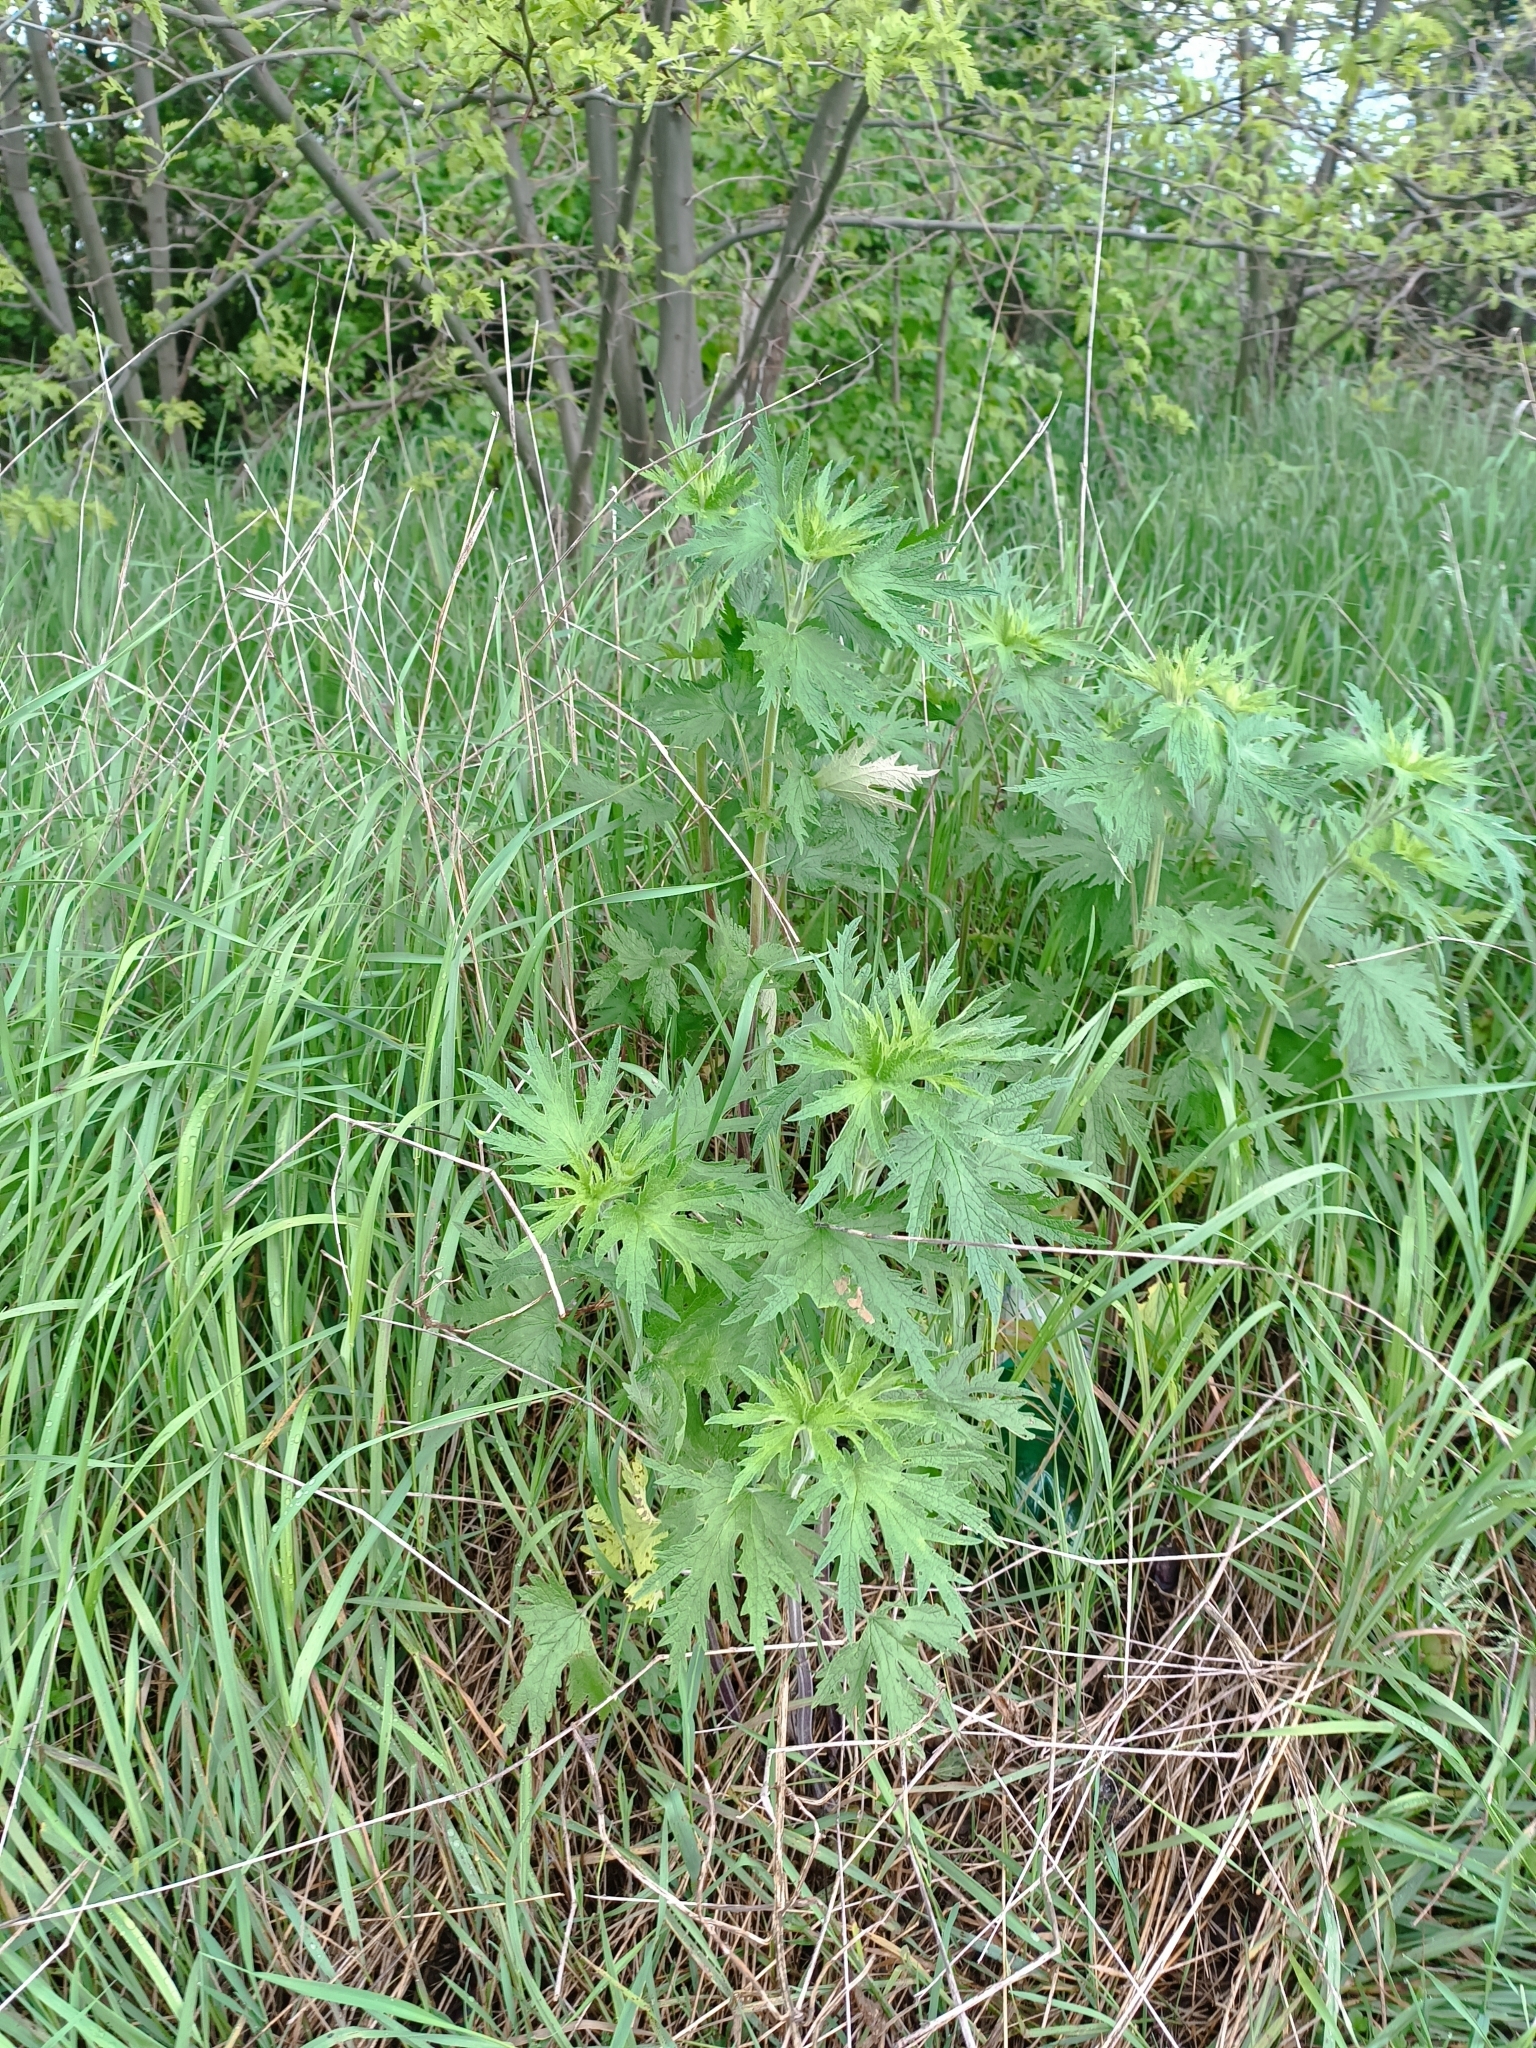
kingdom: Plantae
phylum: Tracheophyta
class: Magnoliopsida
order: Lamiales
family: Lamiaceae
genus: Leonurus
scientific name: Leonurus quinquelobatus
